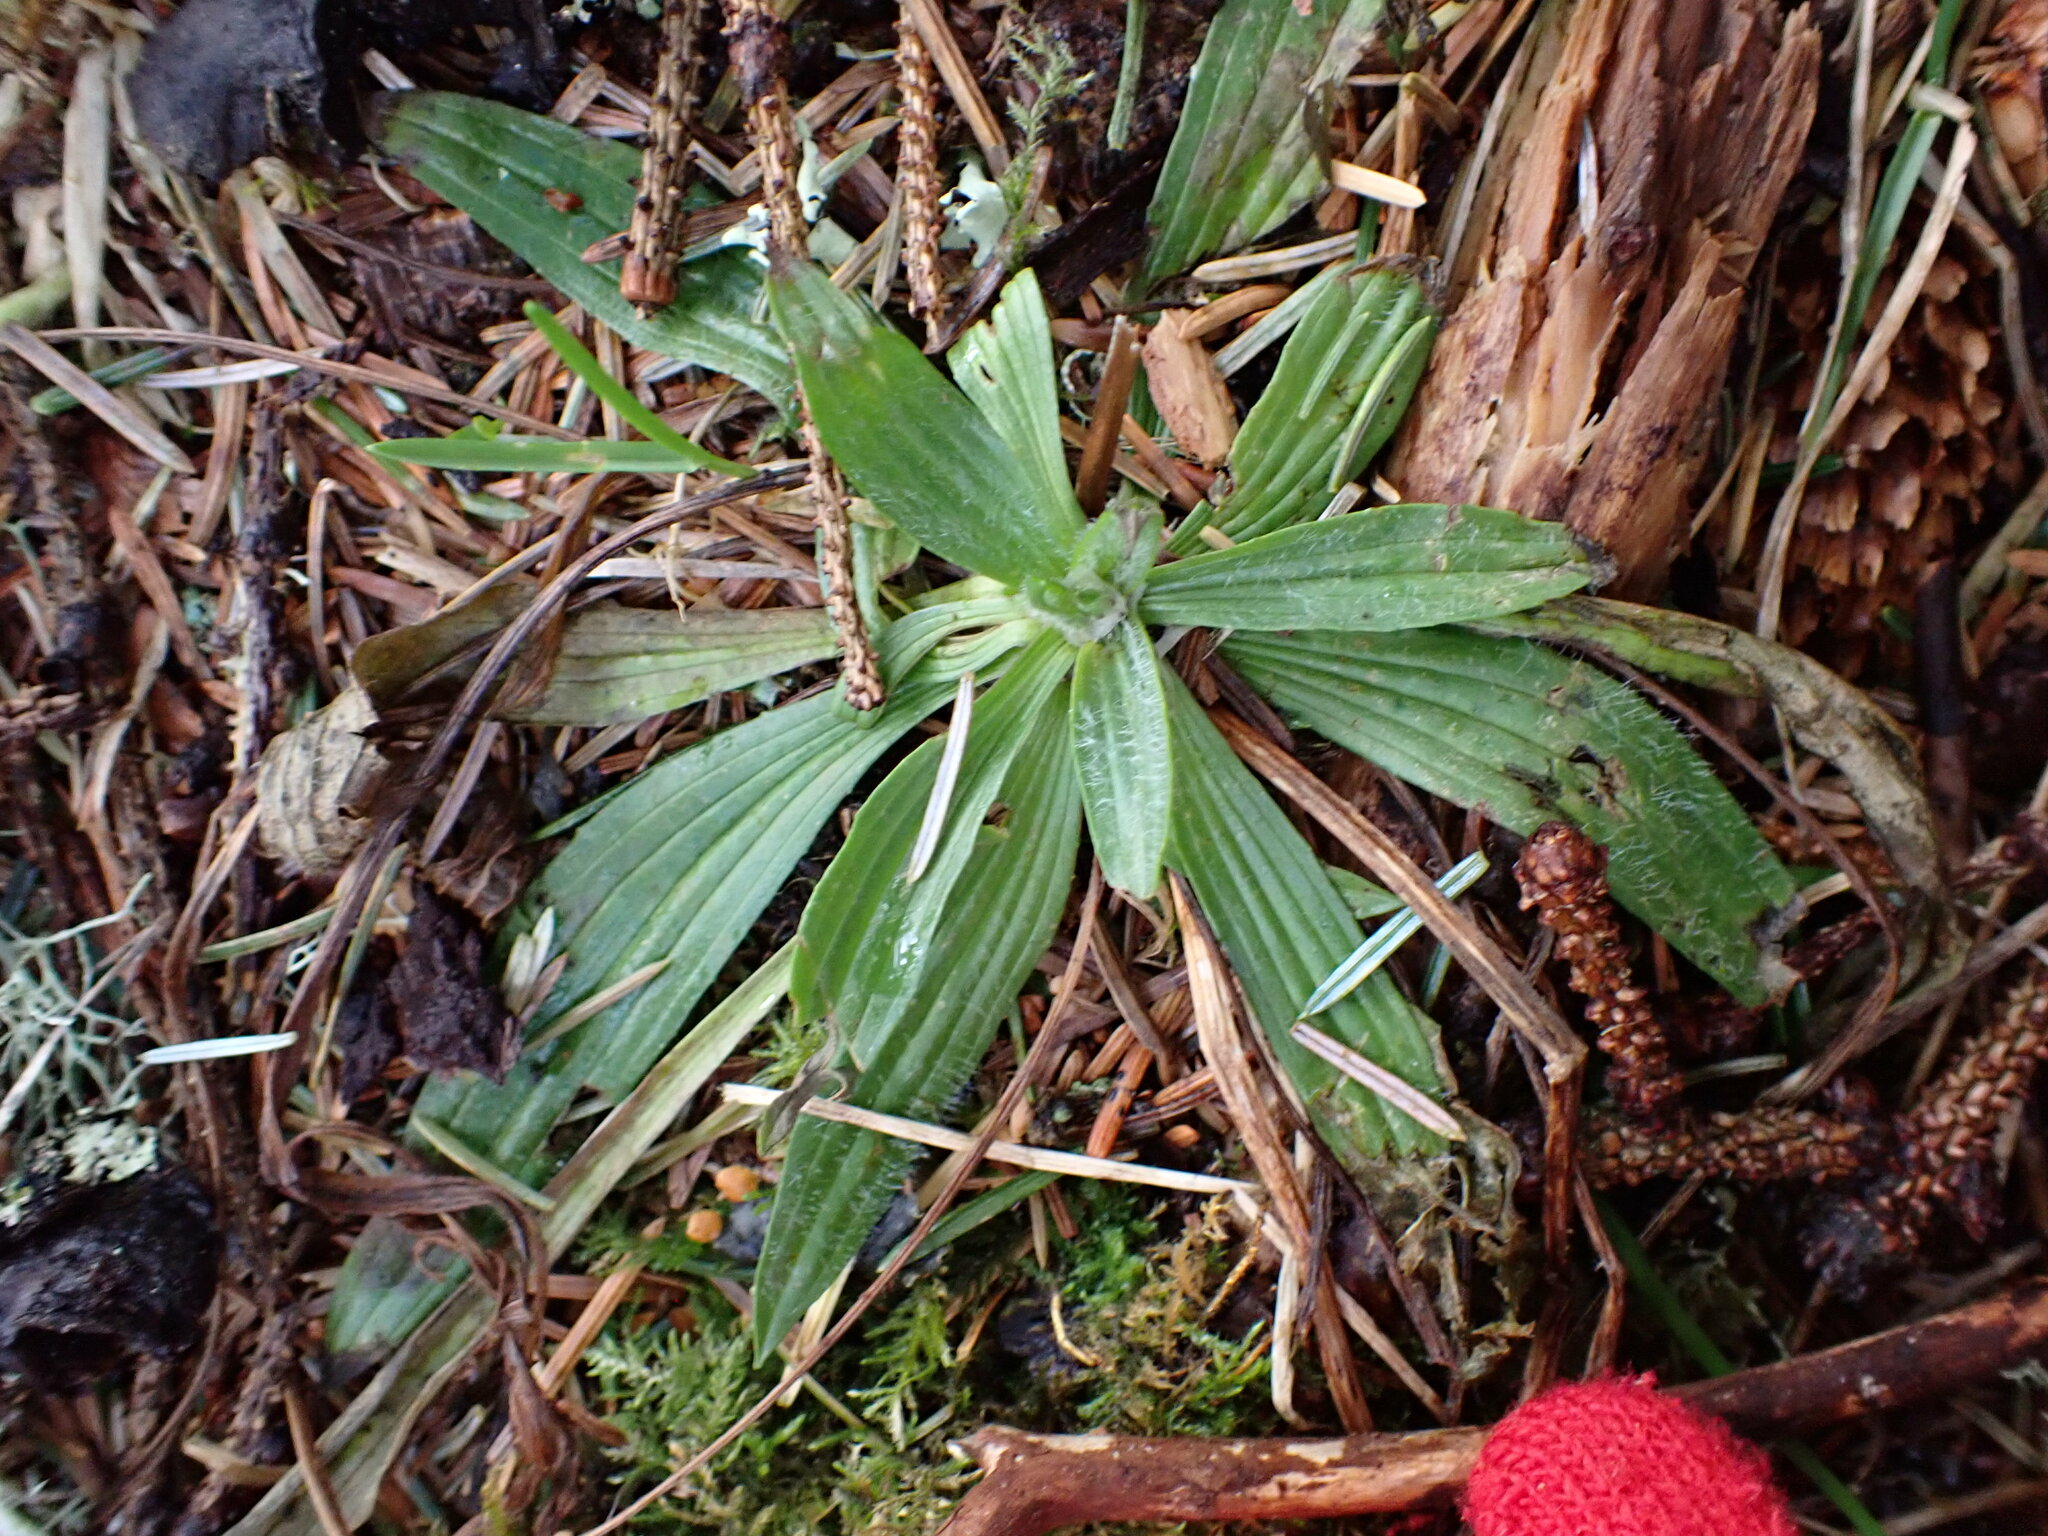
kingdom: Plantae
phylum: Tracheophyta
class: Magnoliopsida
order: Lamiales
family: Plantaginaceae
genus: Plantago
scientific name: Plantago lanceolata
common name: Ribwort plantain
